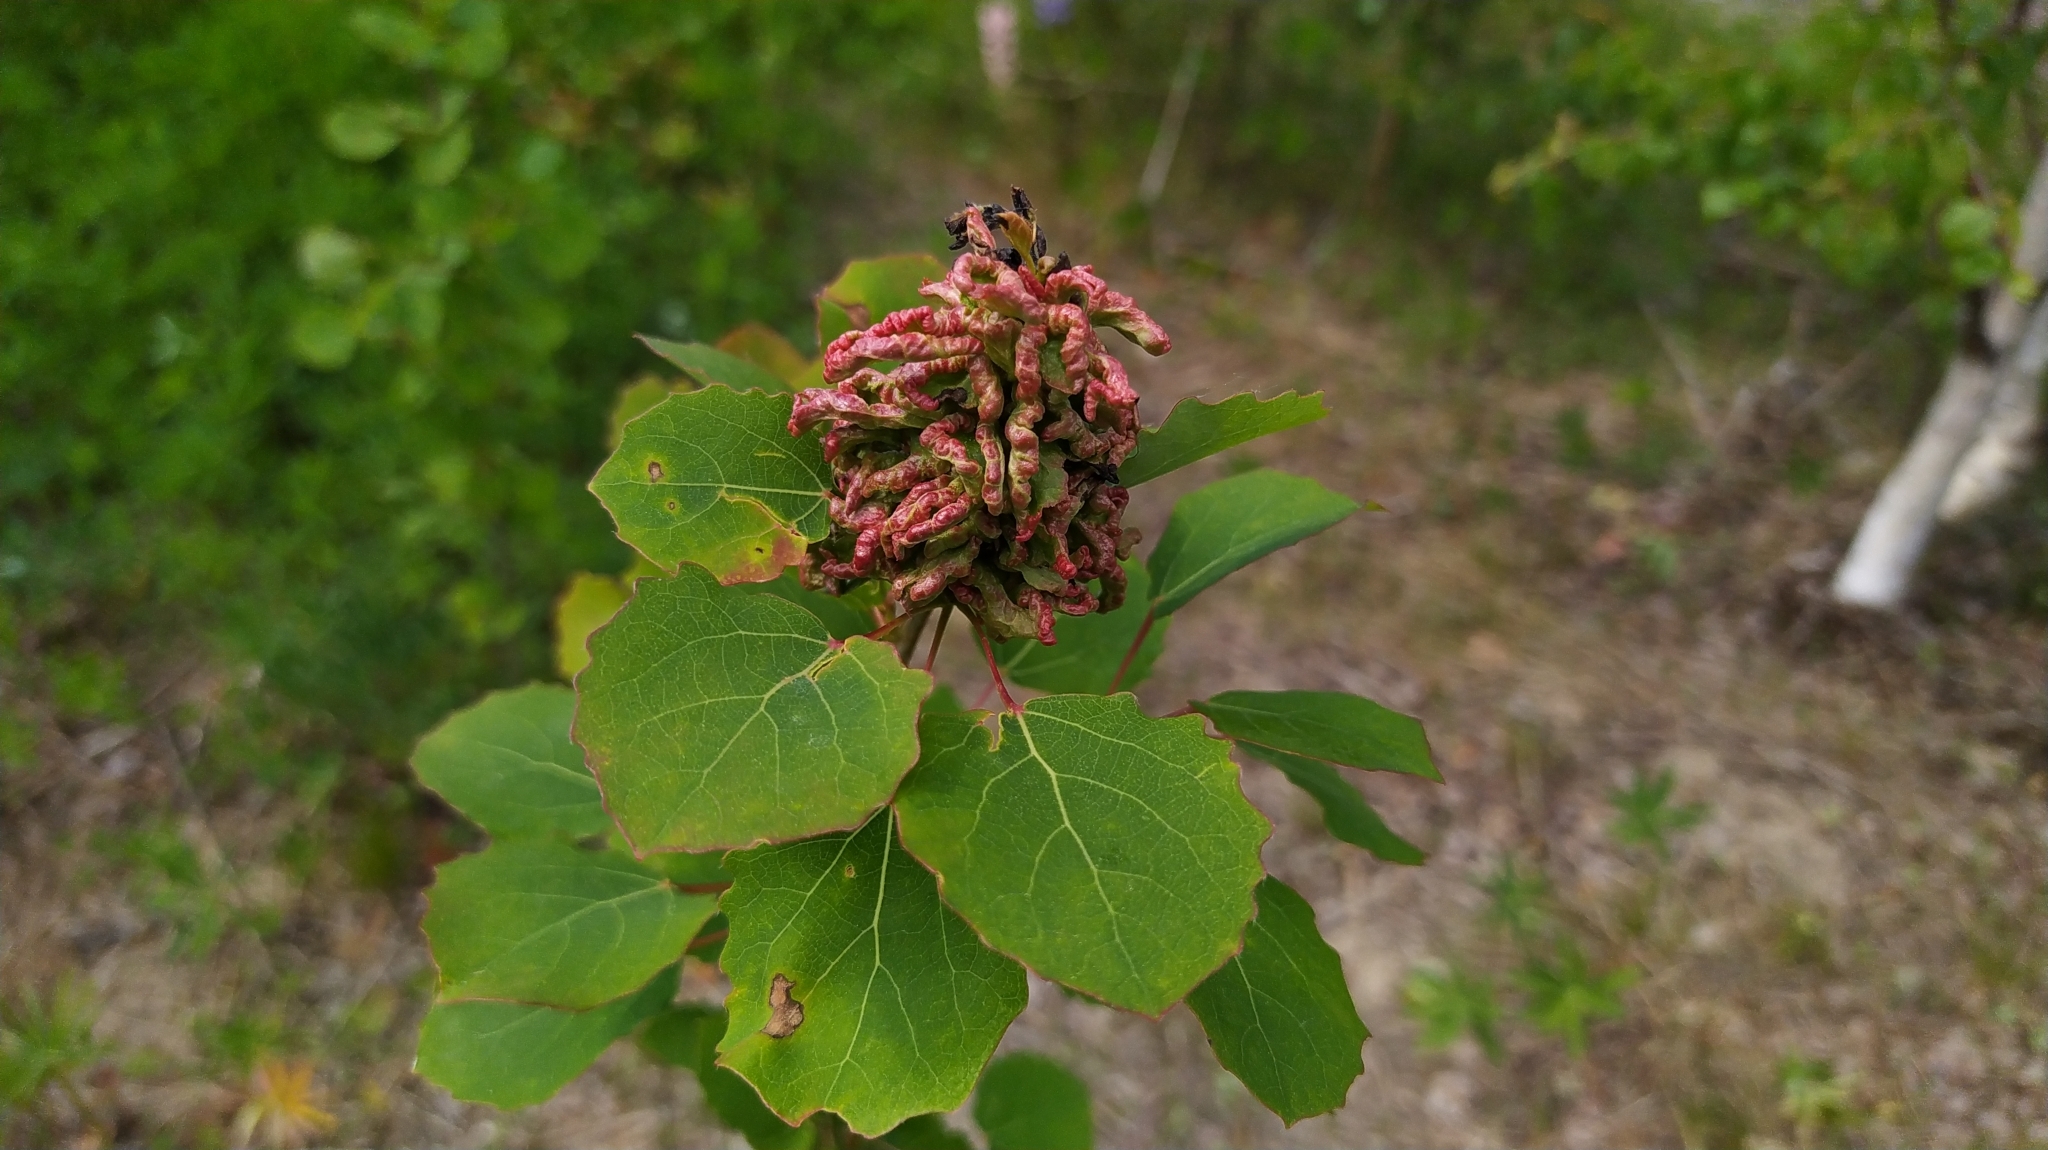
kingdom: Animalia
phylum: Arthropoda
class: Arachnida
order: Trombidiformes
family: Eriophyidae
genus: Aceria
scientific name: Aceria dispar
